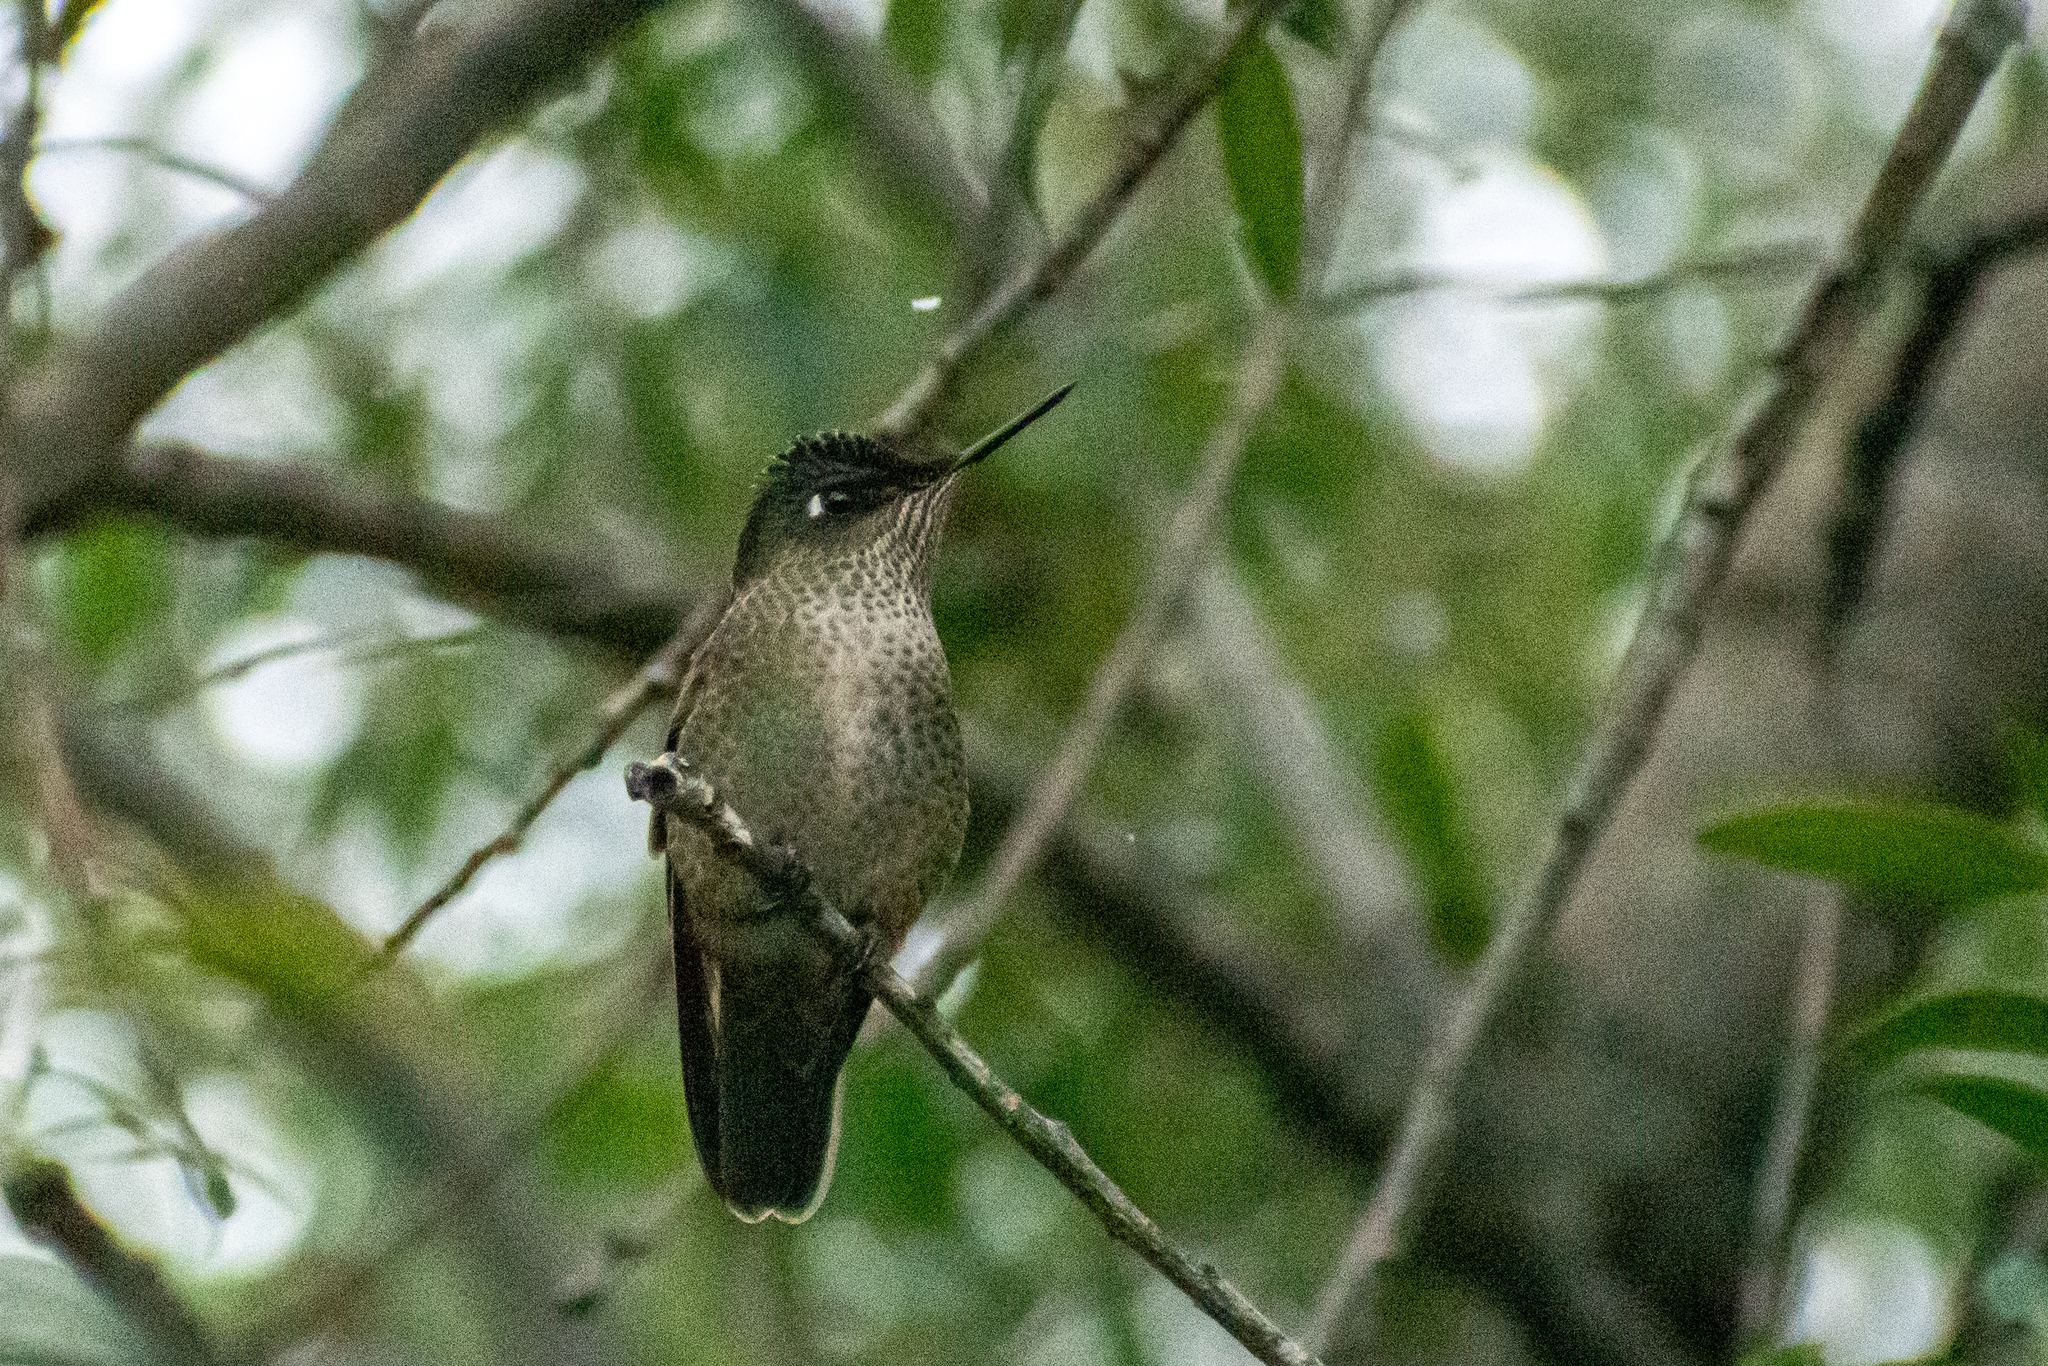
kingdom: Animalia
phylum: Chordata
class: Aves
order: Apodiformes
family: Trochilidae
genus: Sephanoides
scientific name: Sephanoides sephaniodes
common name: Green-backed firecrown
